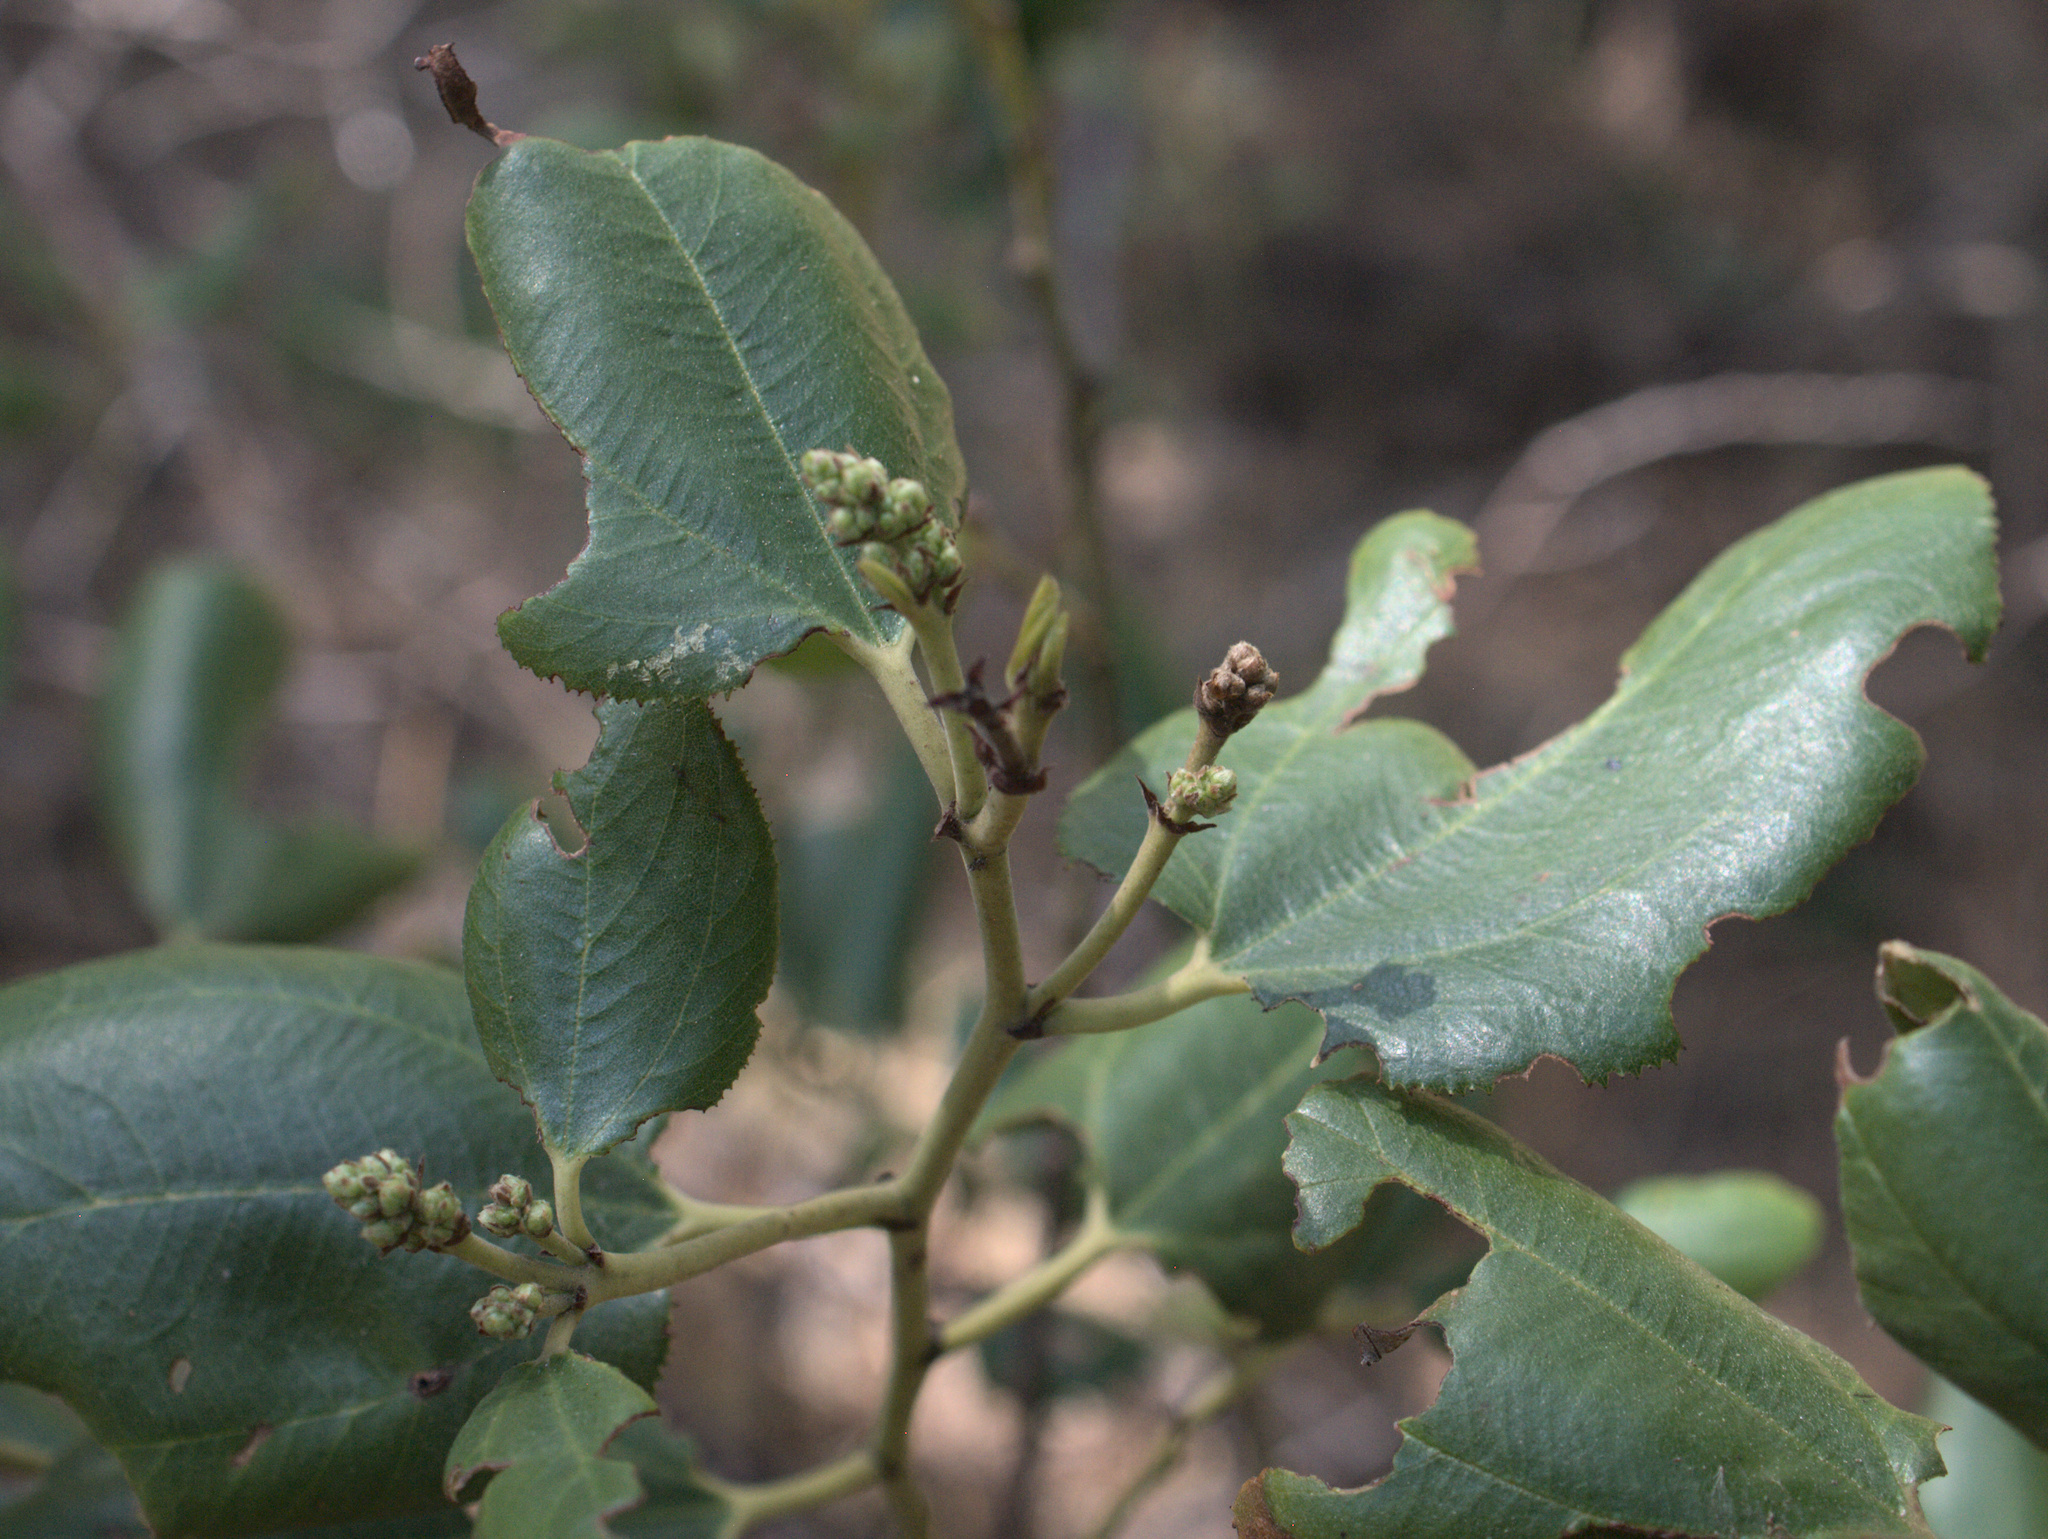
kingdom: Plantae
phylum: Tracheophyta
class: Magnoliopsida
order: Rosales
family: Rhamnaceae
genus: Ceanothus
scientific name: Ceanothus velutinus
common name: Snowbrush
